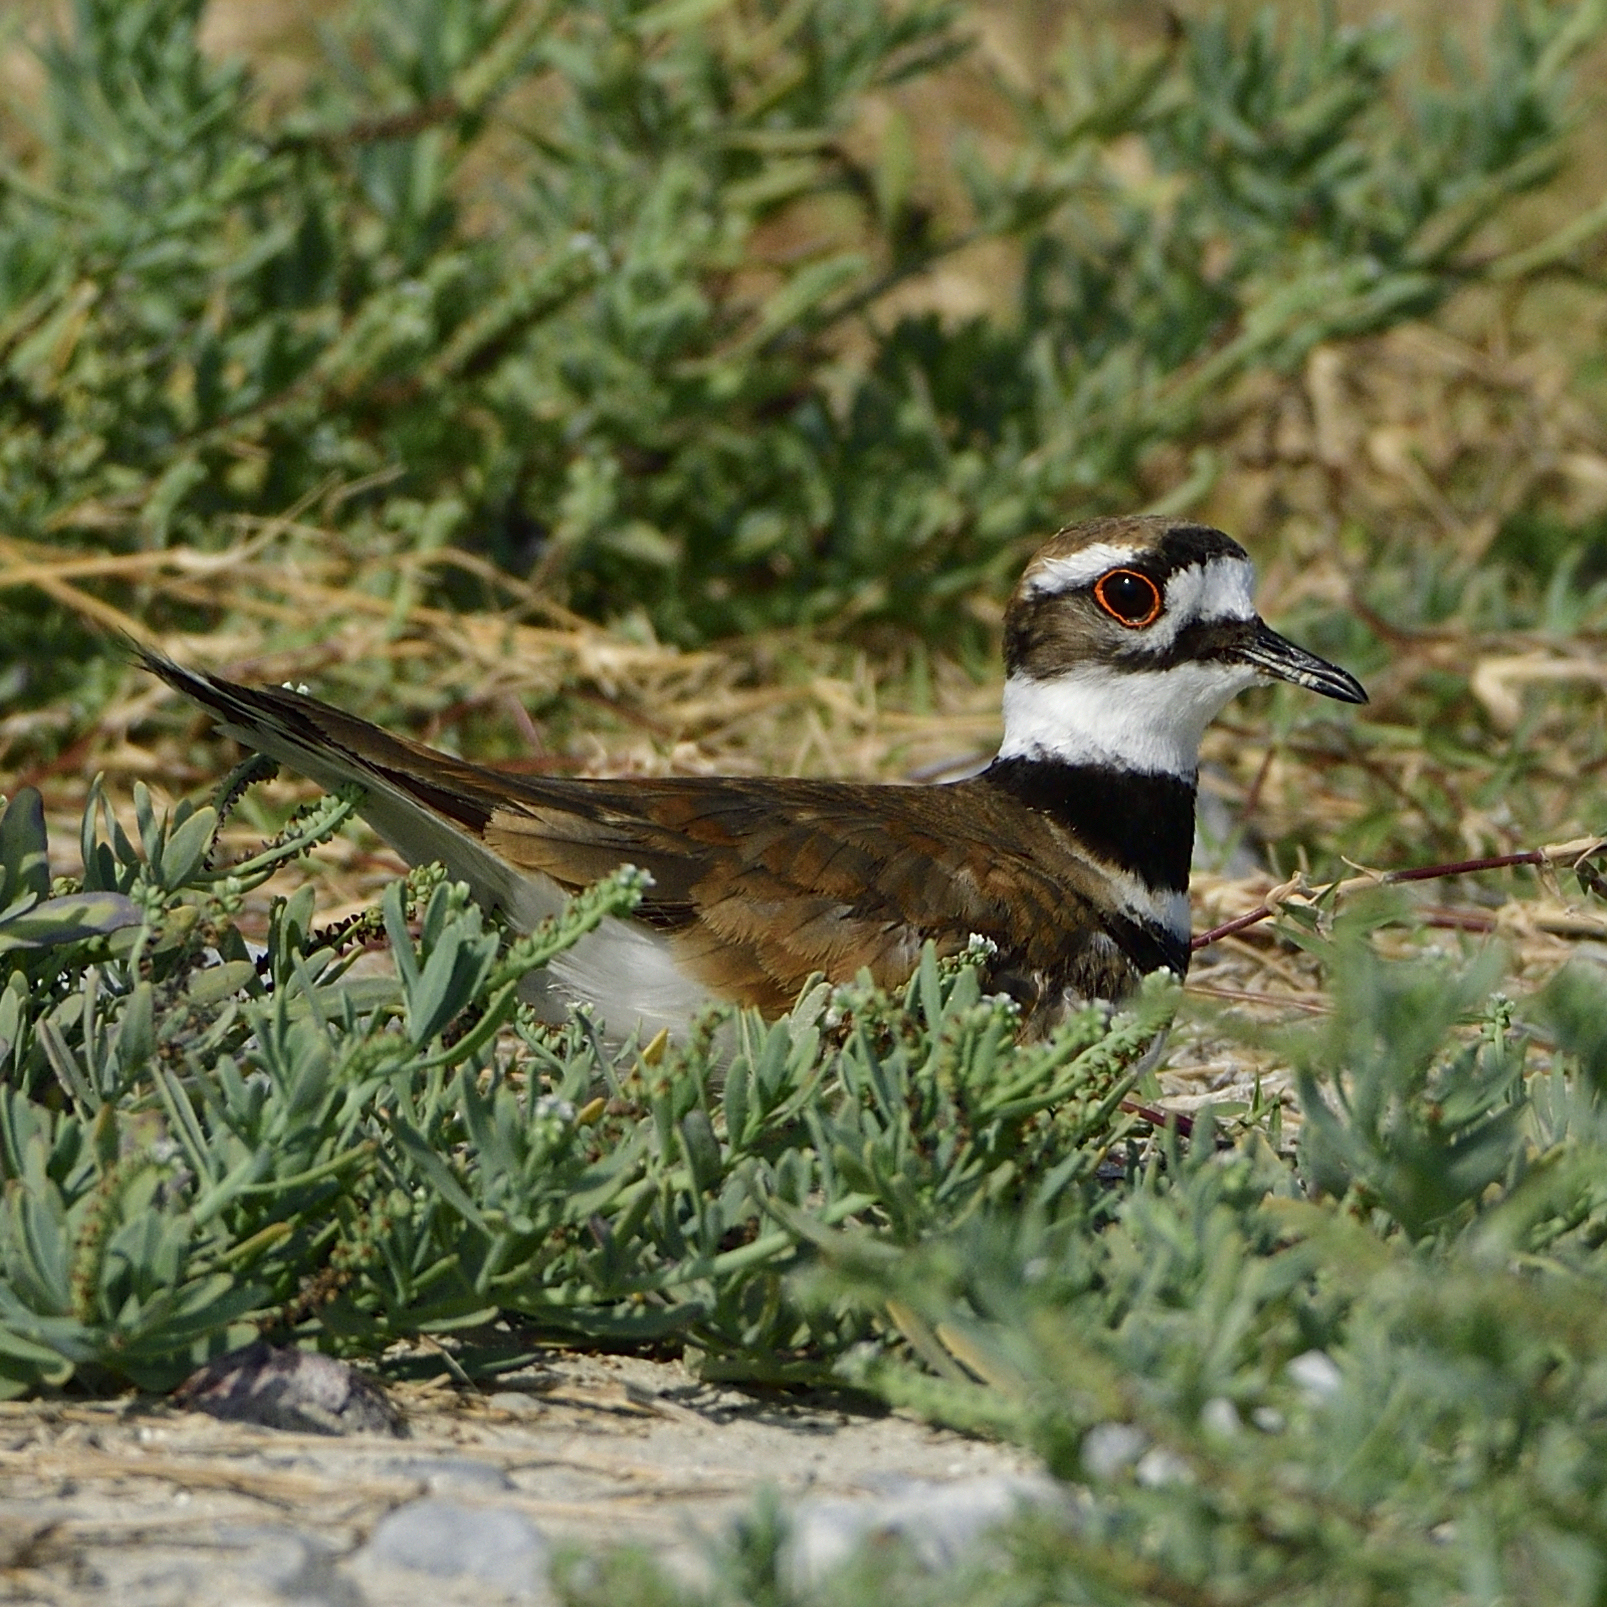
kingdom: Animalia
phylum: Chordata
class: Aves
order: Charadriiformes
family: Charadriidae
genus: Charadrius
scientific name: Charadrius vociferus
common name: Killdeer
